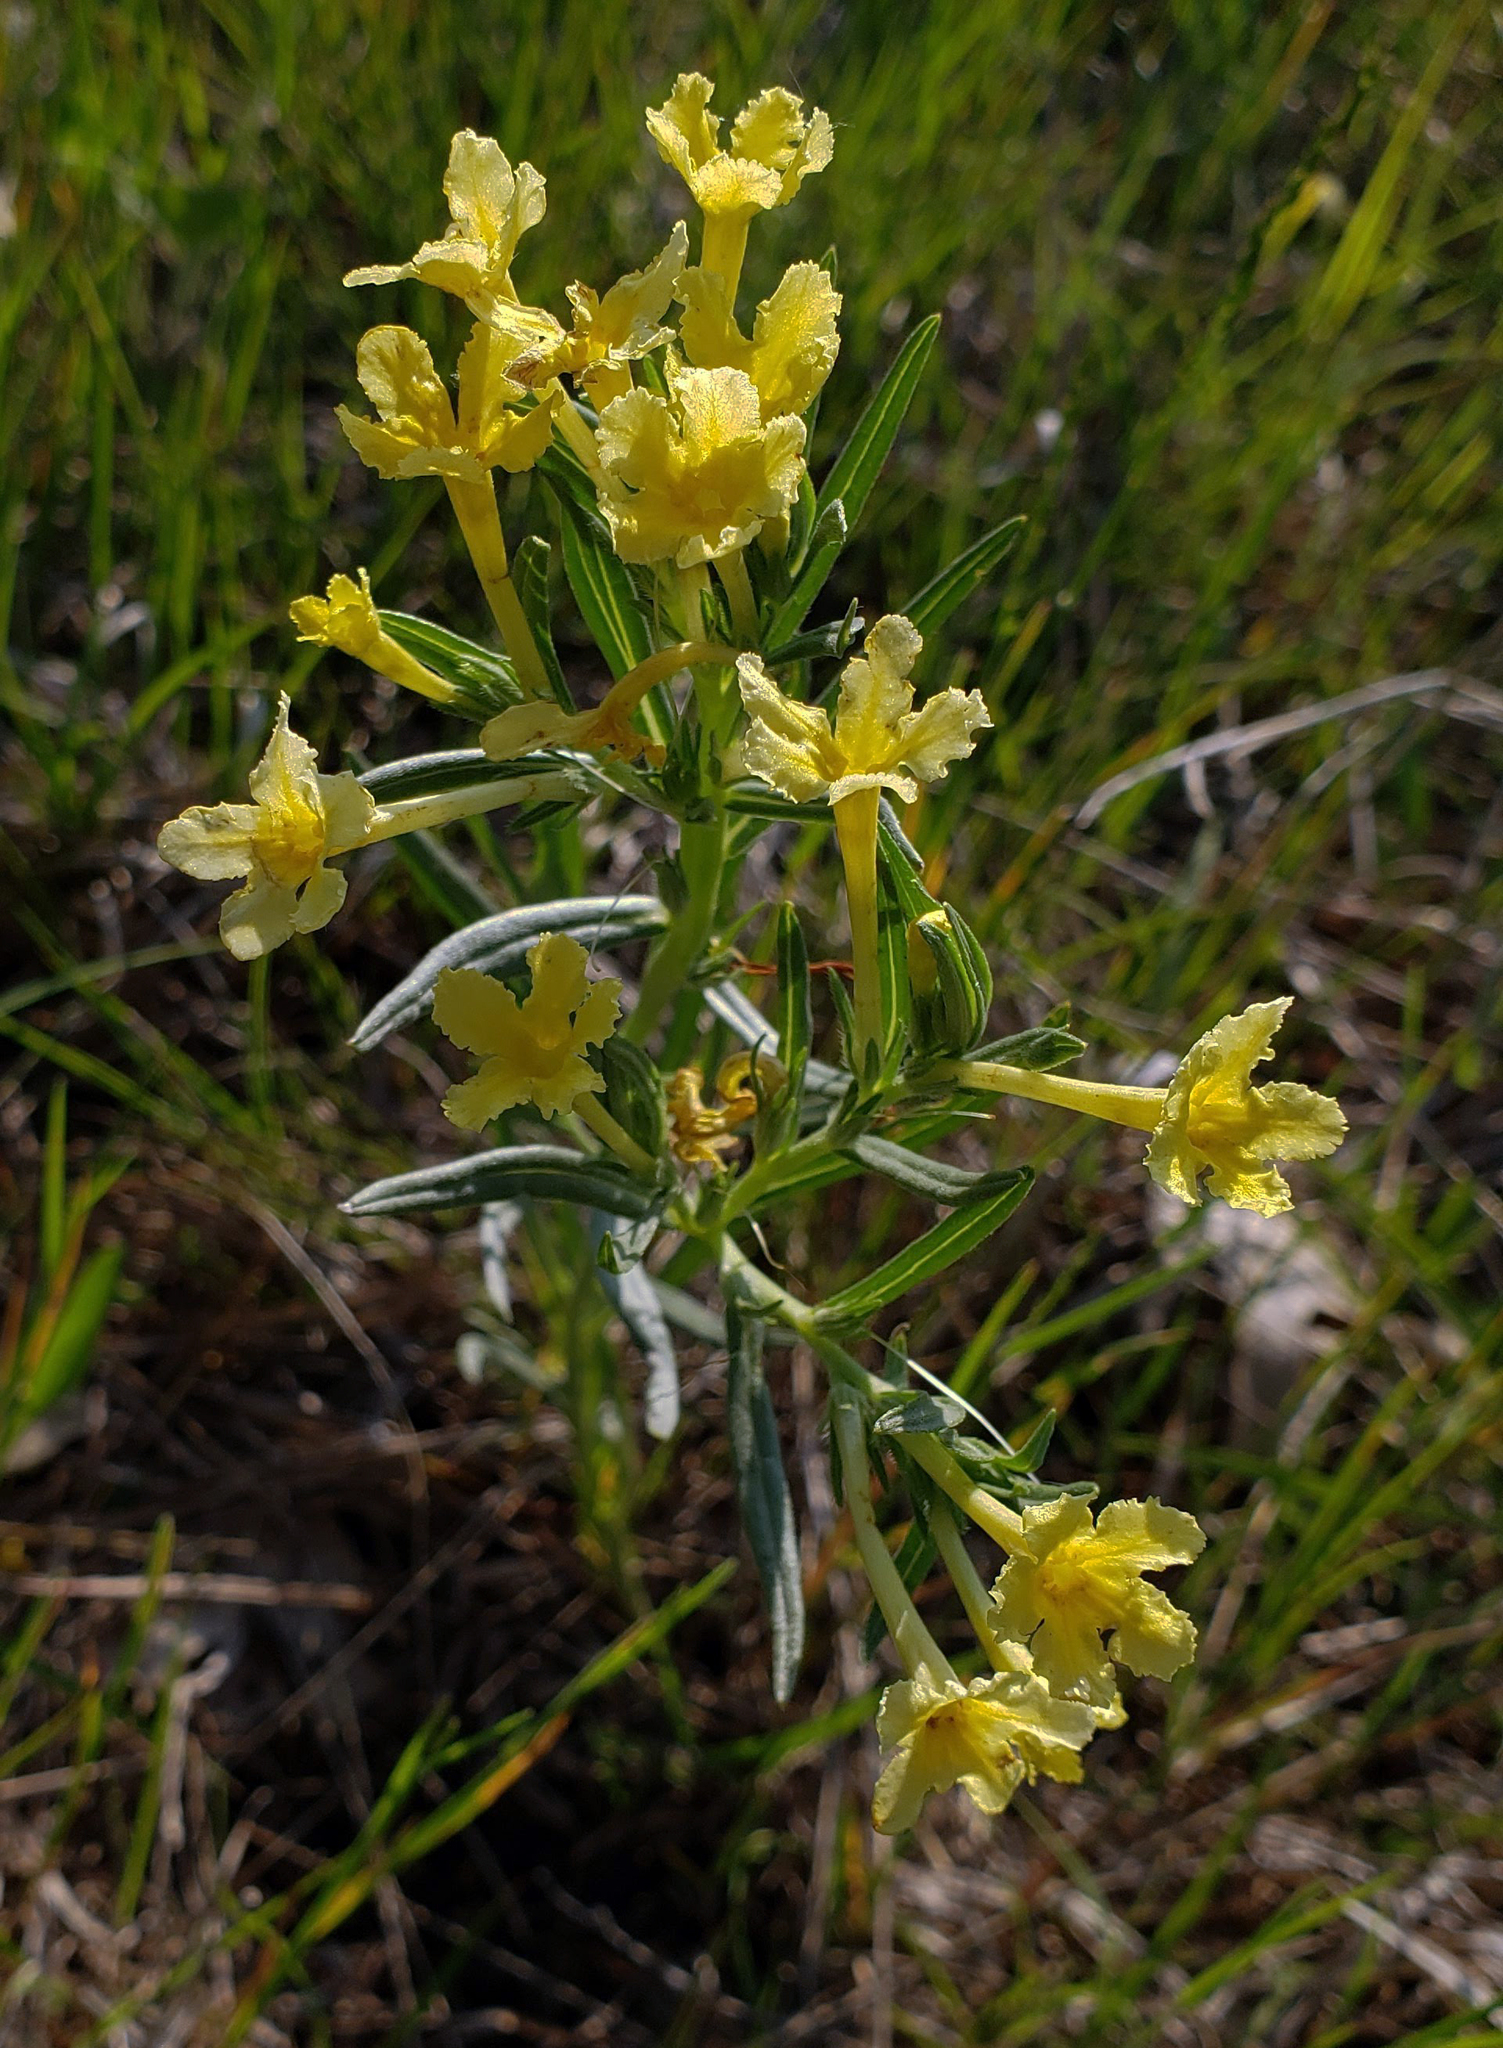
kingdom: Plantae
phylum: Tracheophyta
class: Magnoliopsida
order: Boraginales
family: Boraginaceae
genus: Lithospermum
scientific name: Lithospermum incisum
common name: Fringed gromwell
